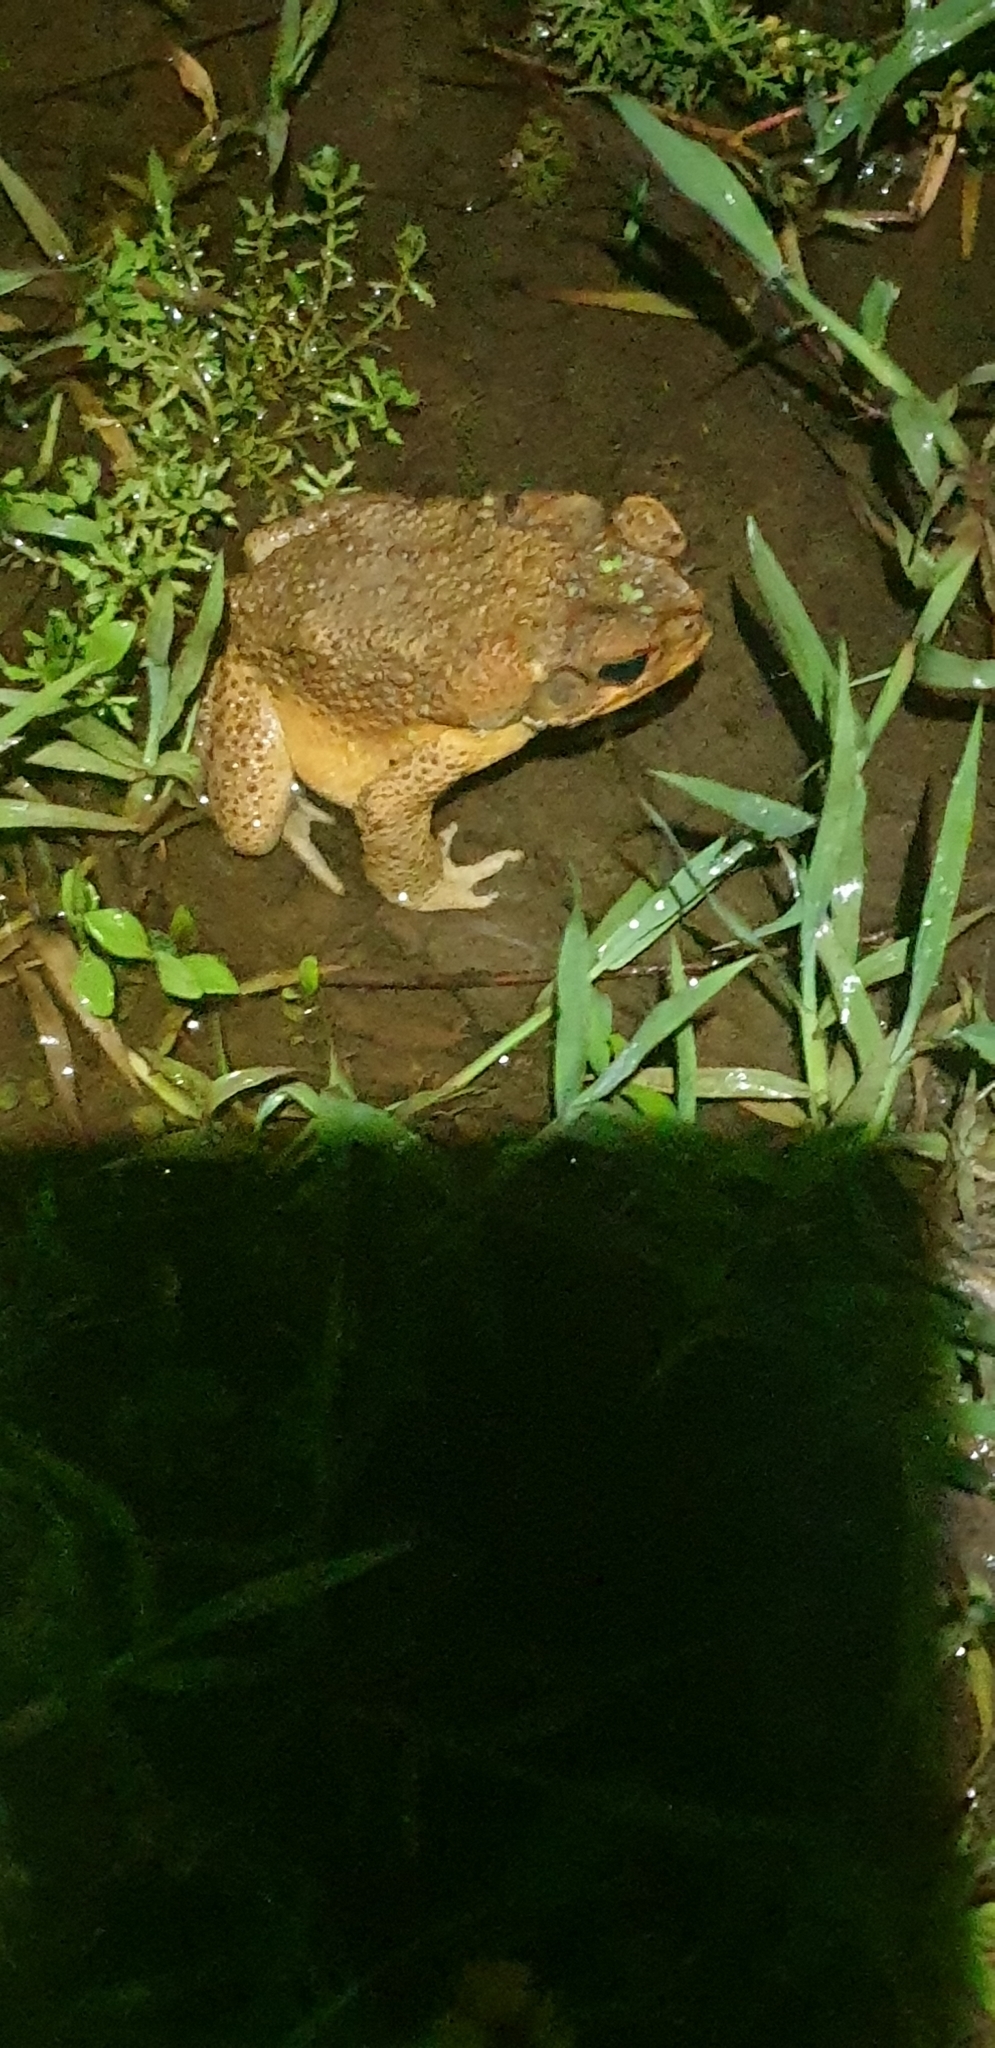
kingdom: Animalia
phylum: Chordata
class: Amphibia
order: Anura
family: Bufonidae
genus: Rhinella
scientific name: Rhinella marina
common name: Cane toad
